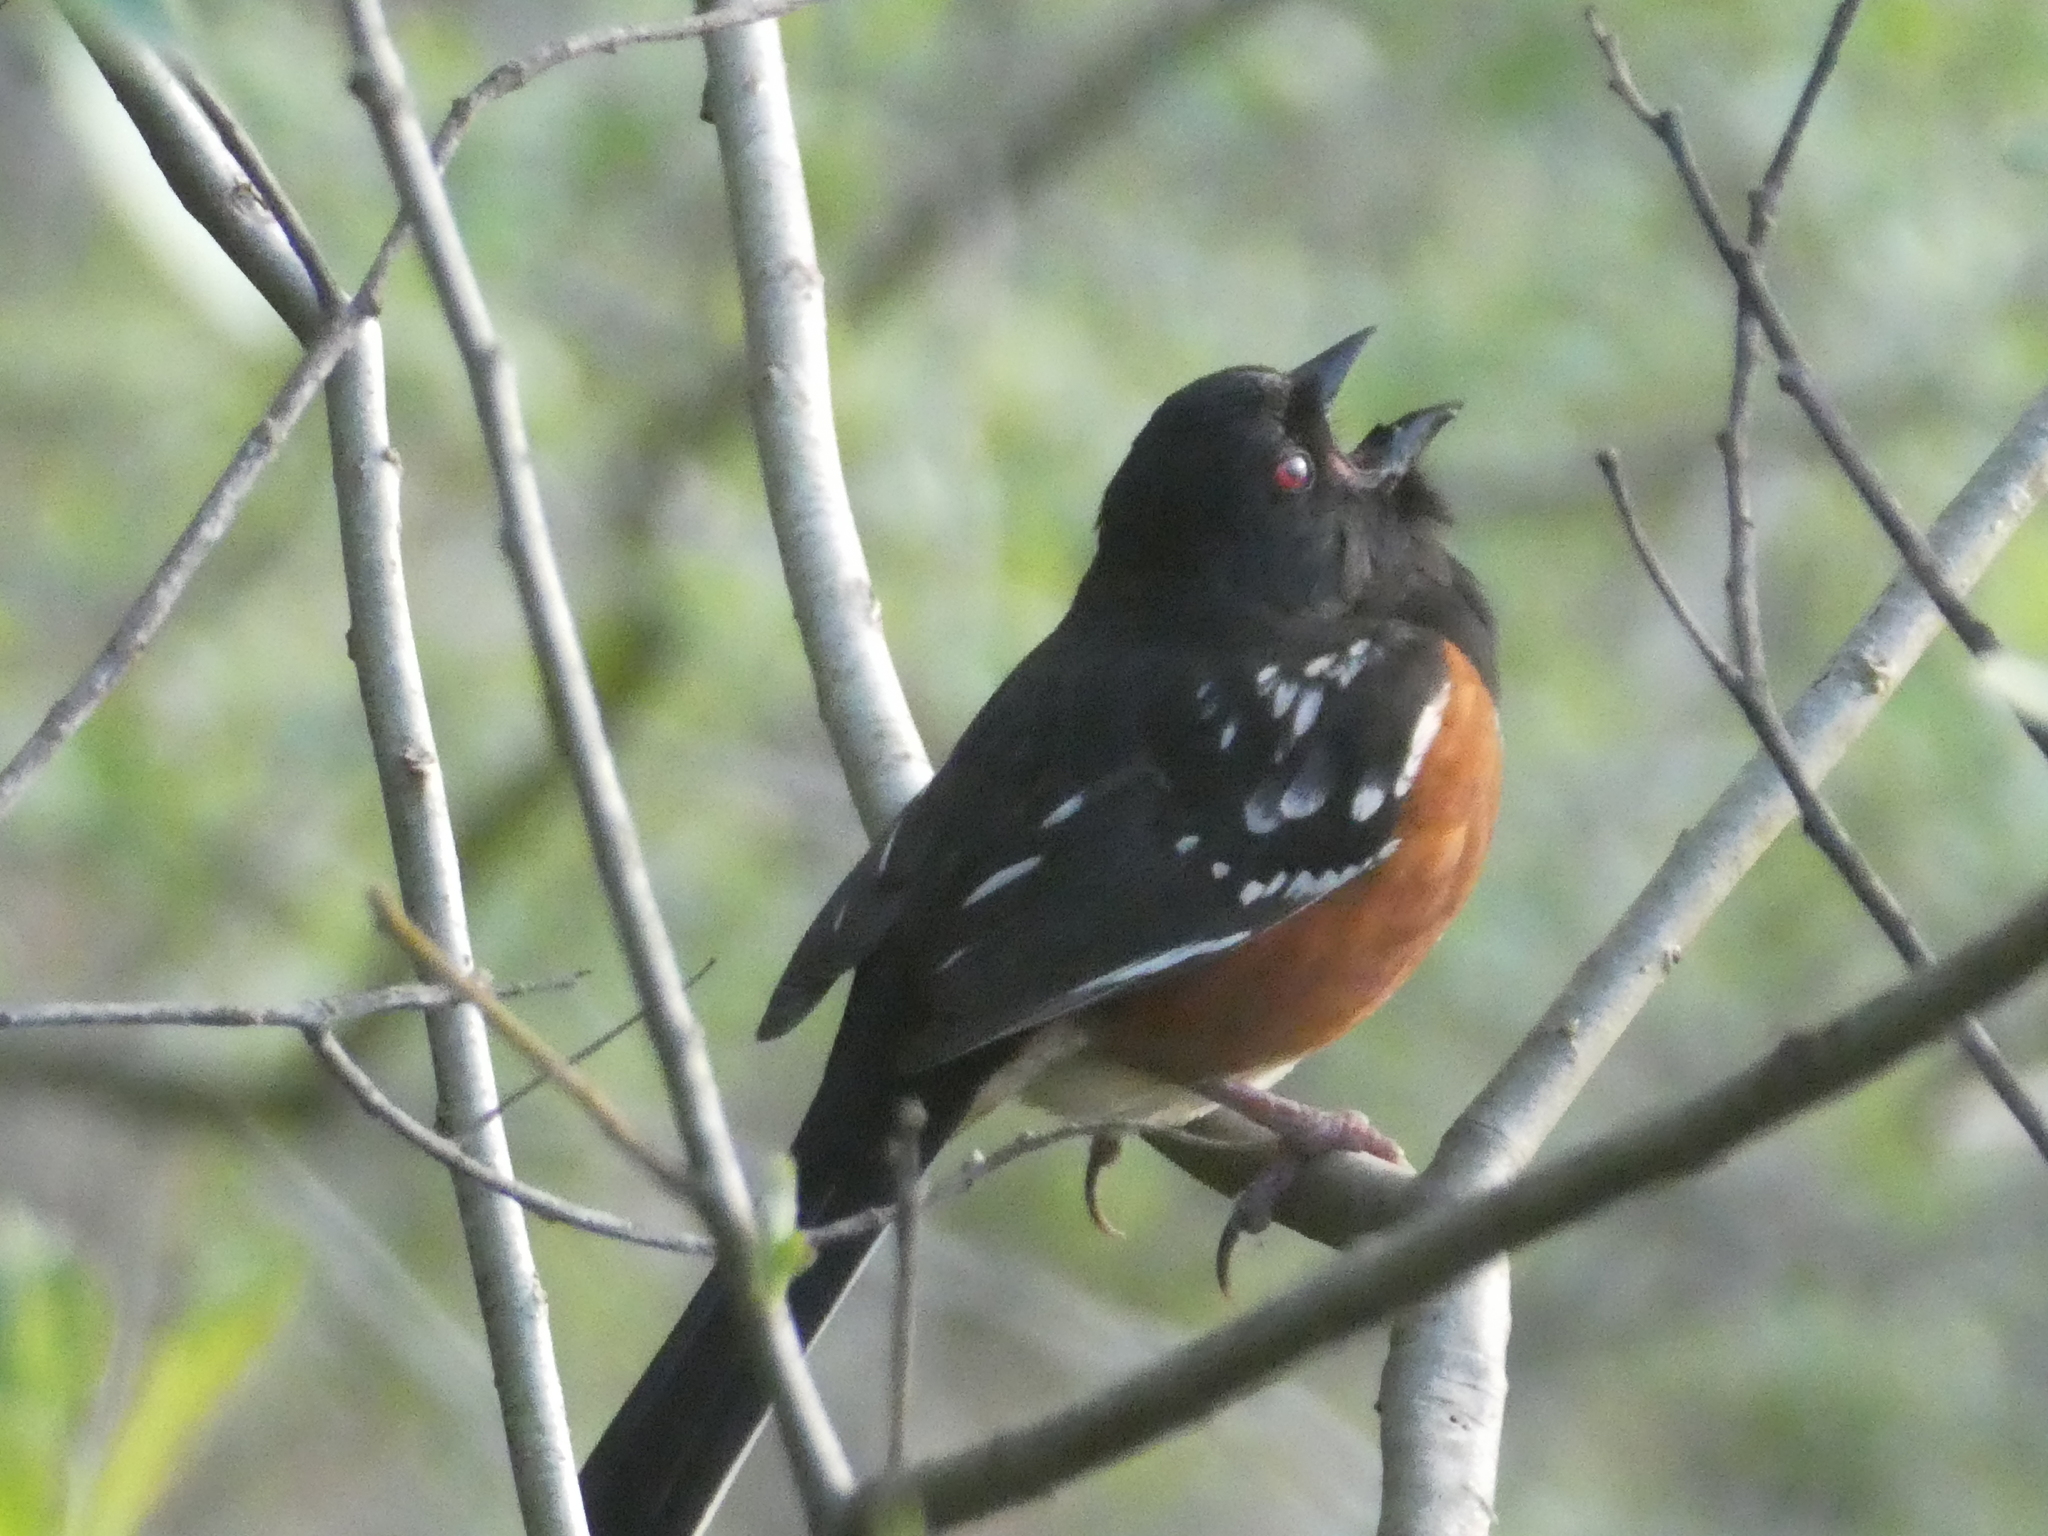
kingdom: Animalia
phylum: Chordata
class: Aves
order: Passeriformes
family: Passerellidae
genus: Pipilo
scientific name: Pipilo maculatus
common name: Spotted towhee
